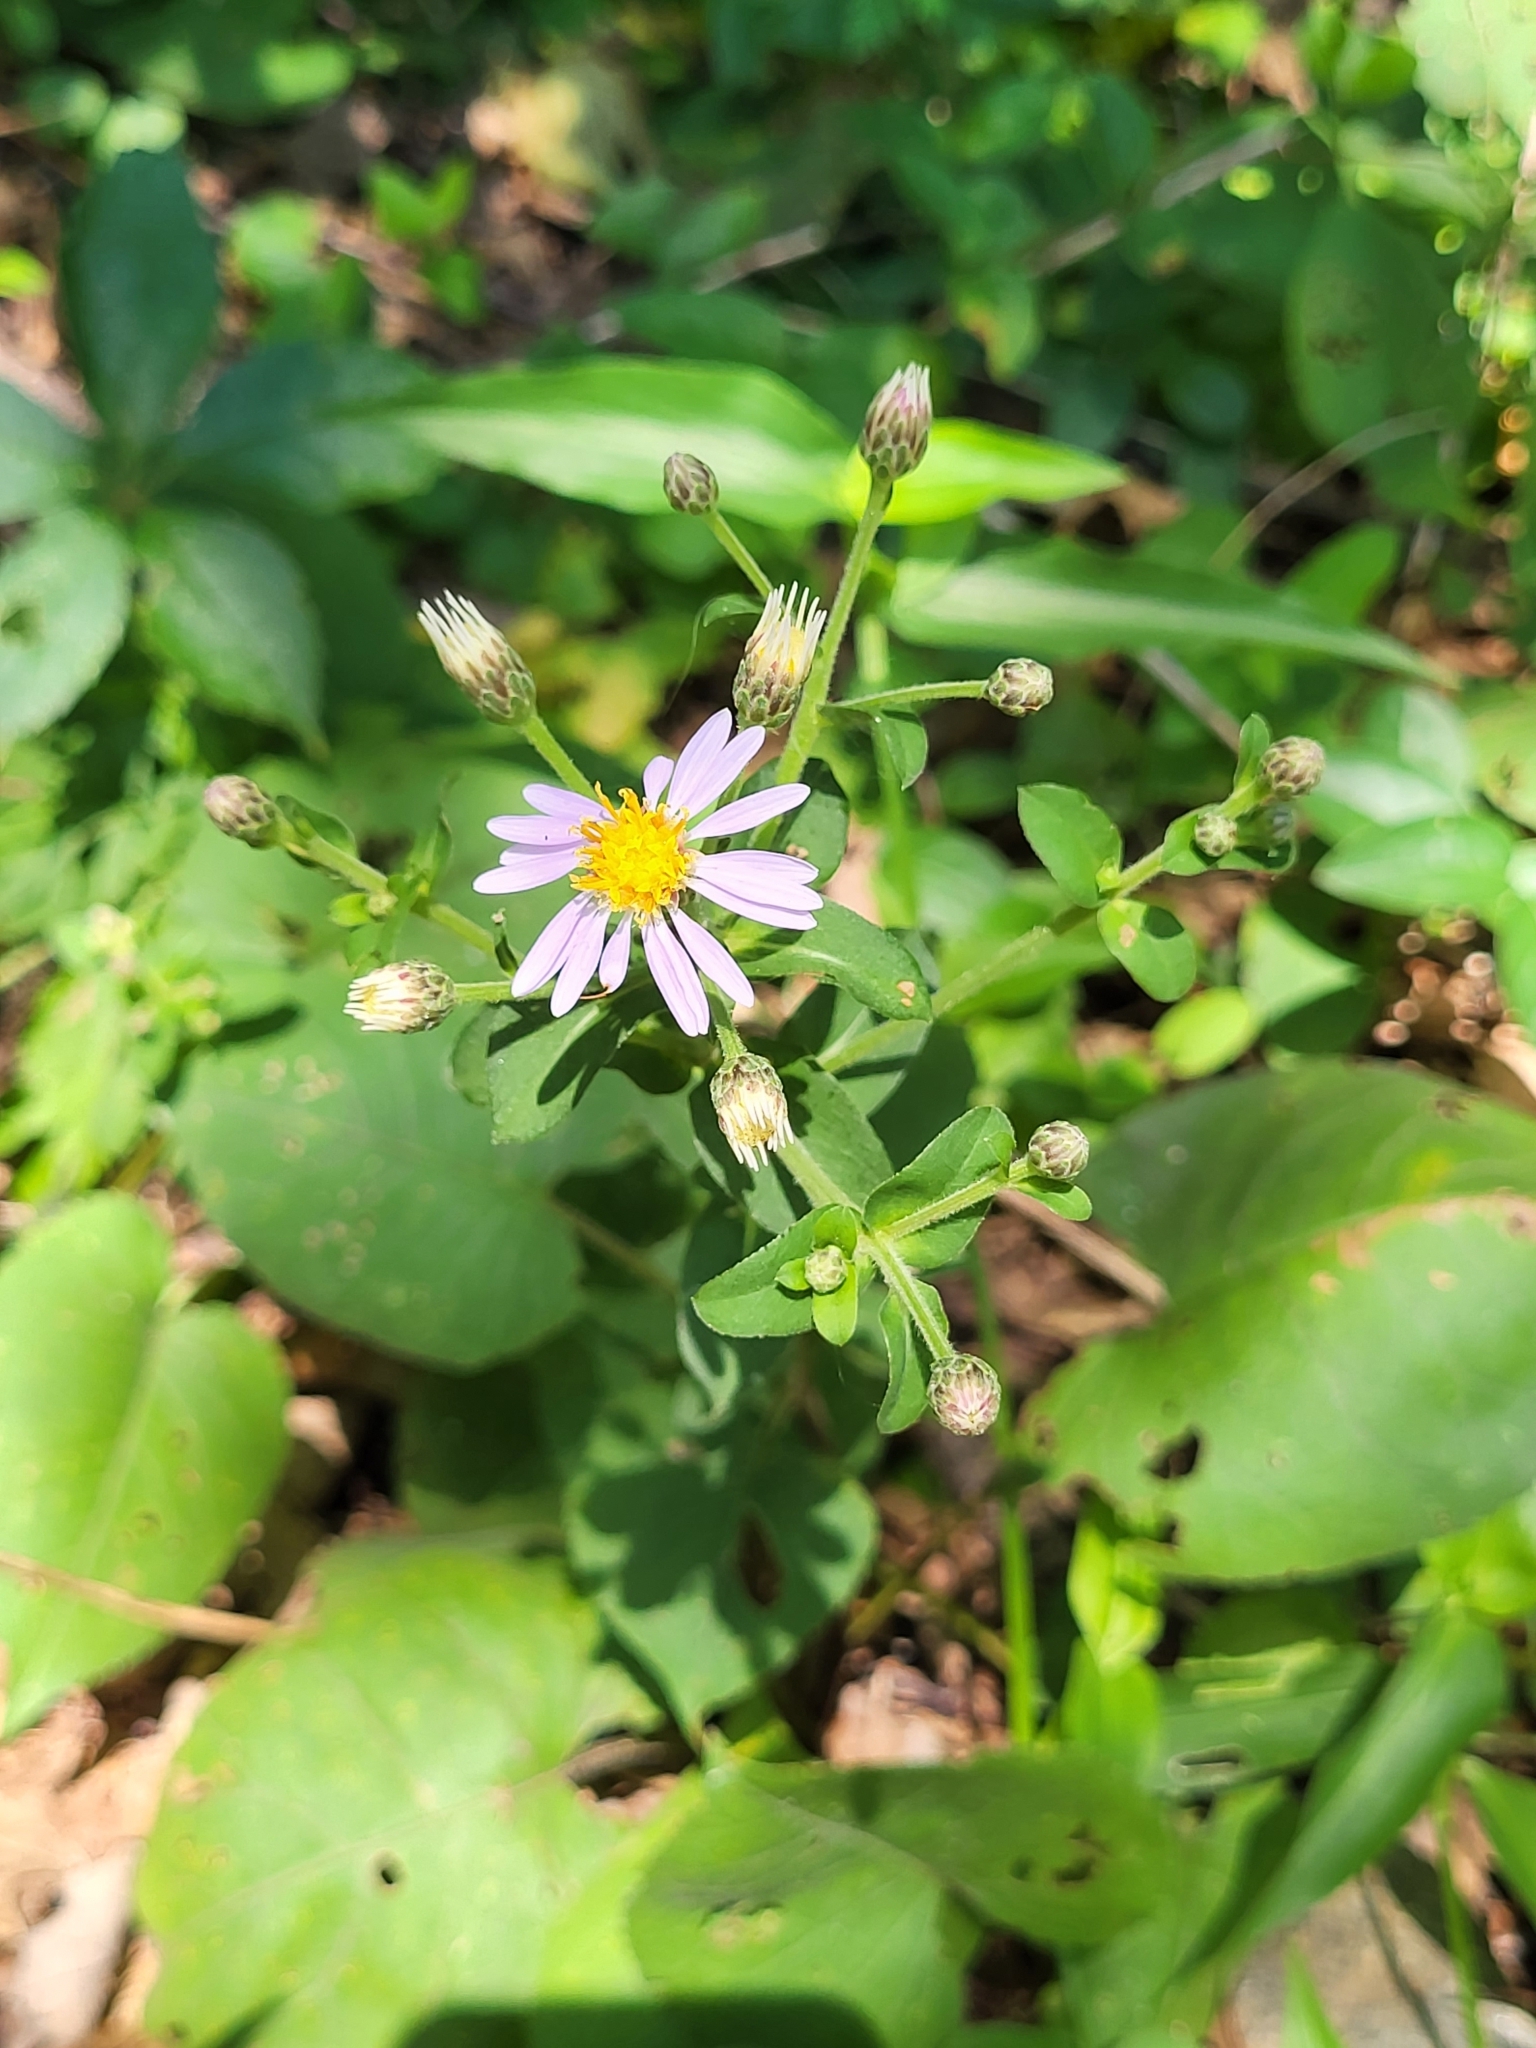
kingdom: Plantae
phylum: Tracheophyta
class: Magnoliopsida
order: Asterales
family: Asteraceae
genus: Eurybia
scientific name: Eurybia macrophylla
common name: Big-leaved aster
